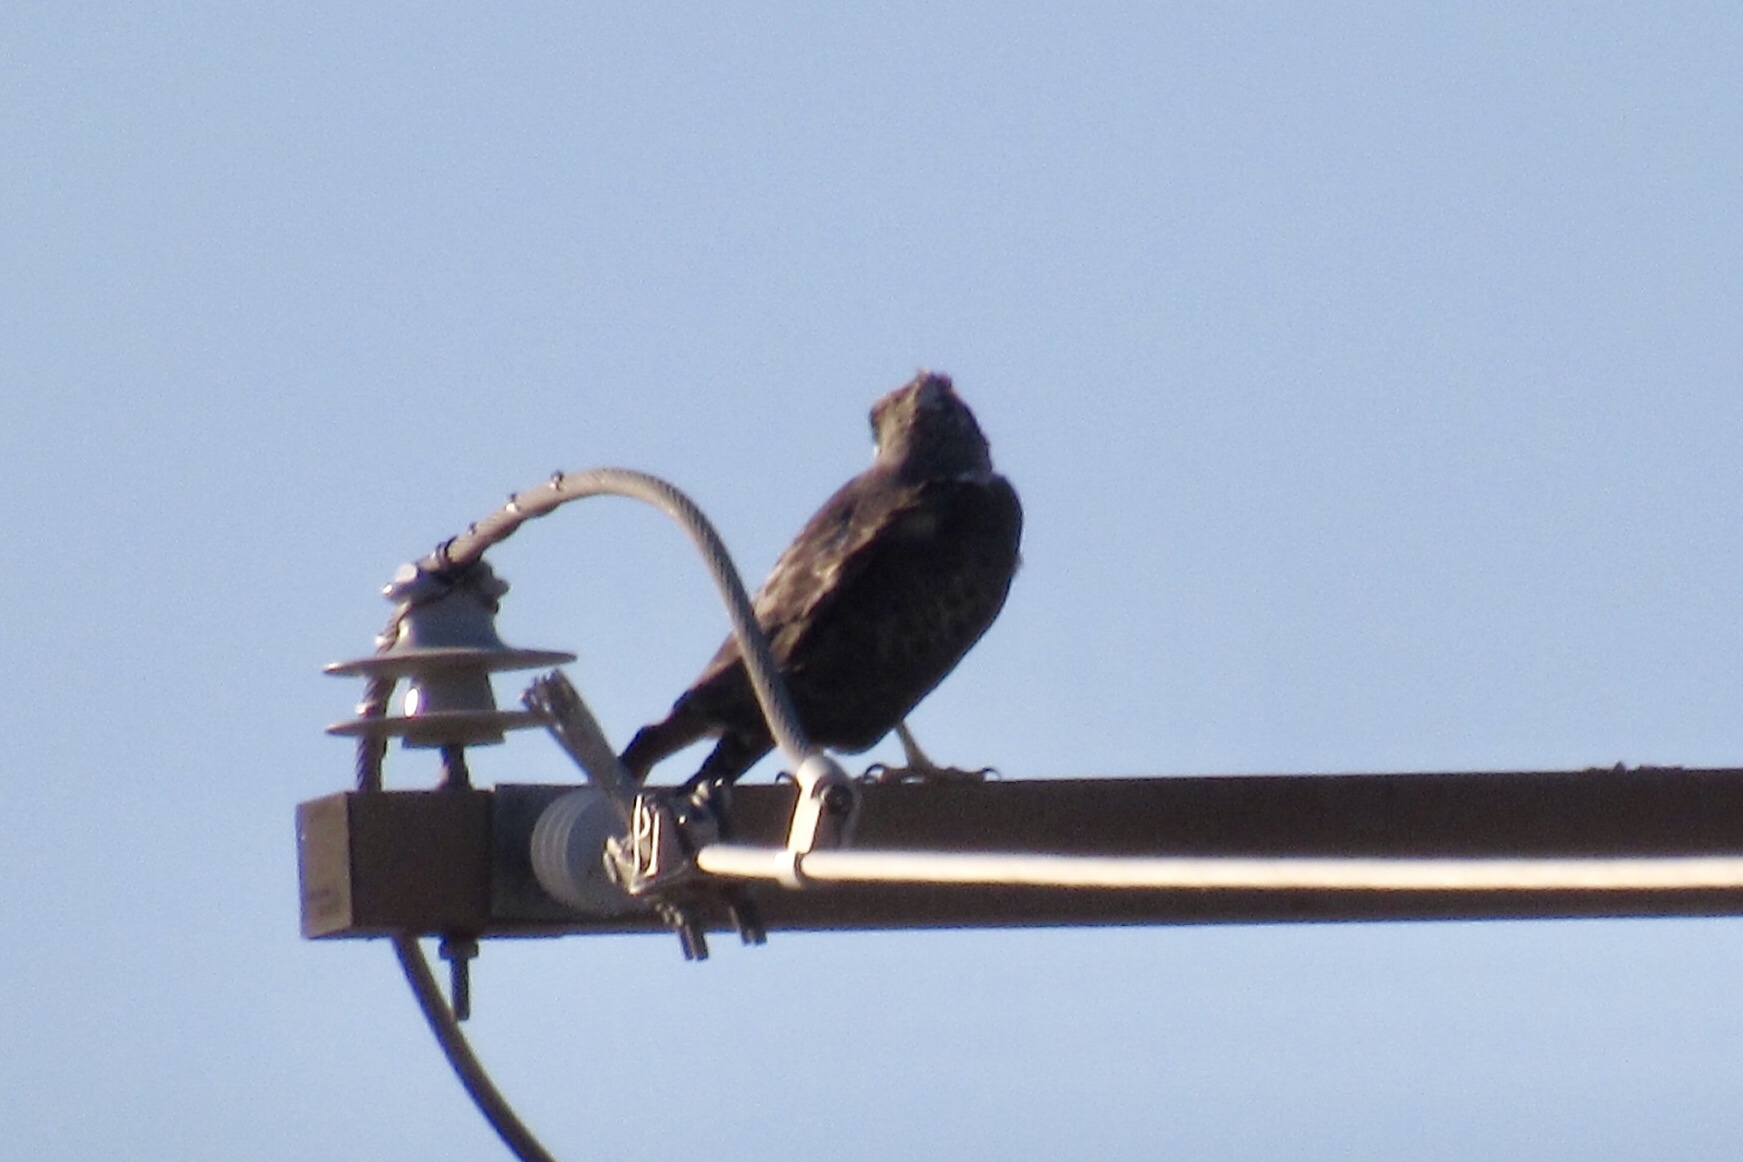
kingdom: Animalia
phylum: Chordata
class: Aves
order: Accipitriformes
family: Accipitridae
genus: Buteo
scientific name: Buteo jamaicensis
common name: Red-tailed hawk
